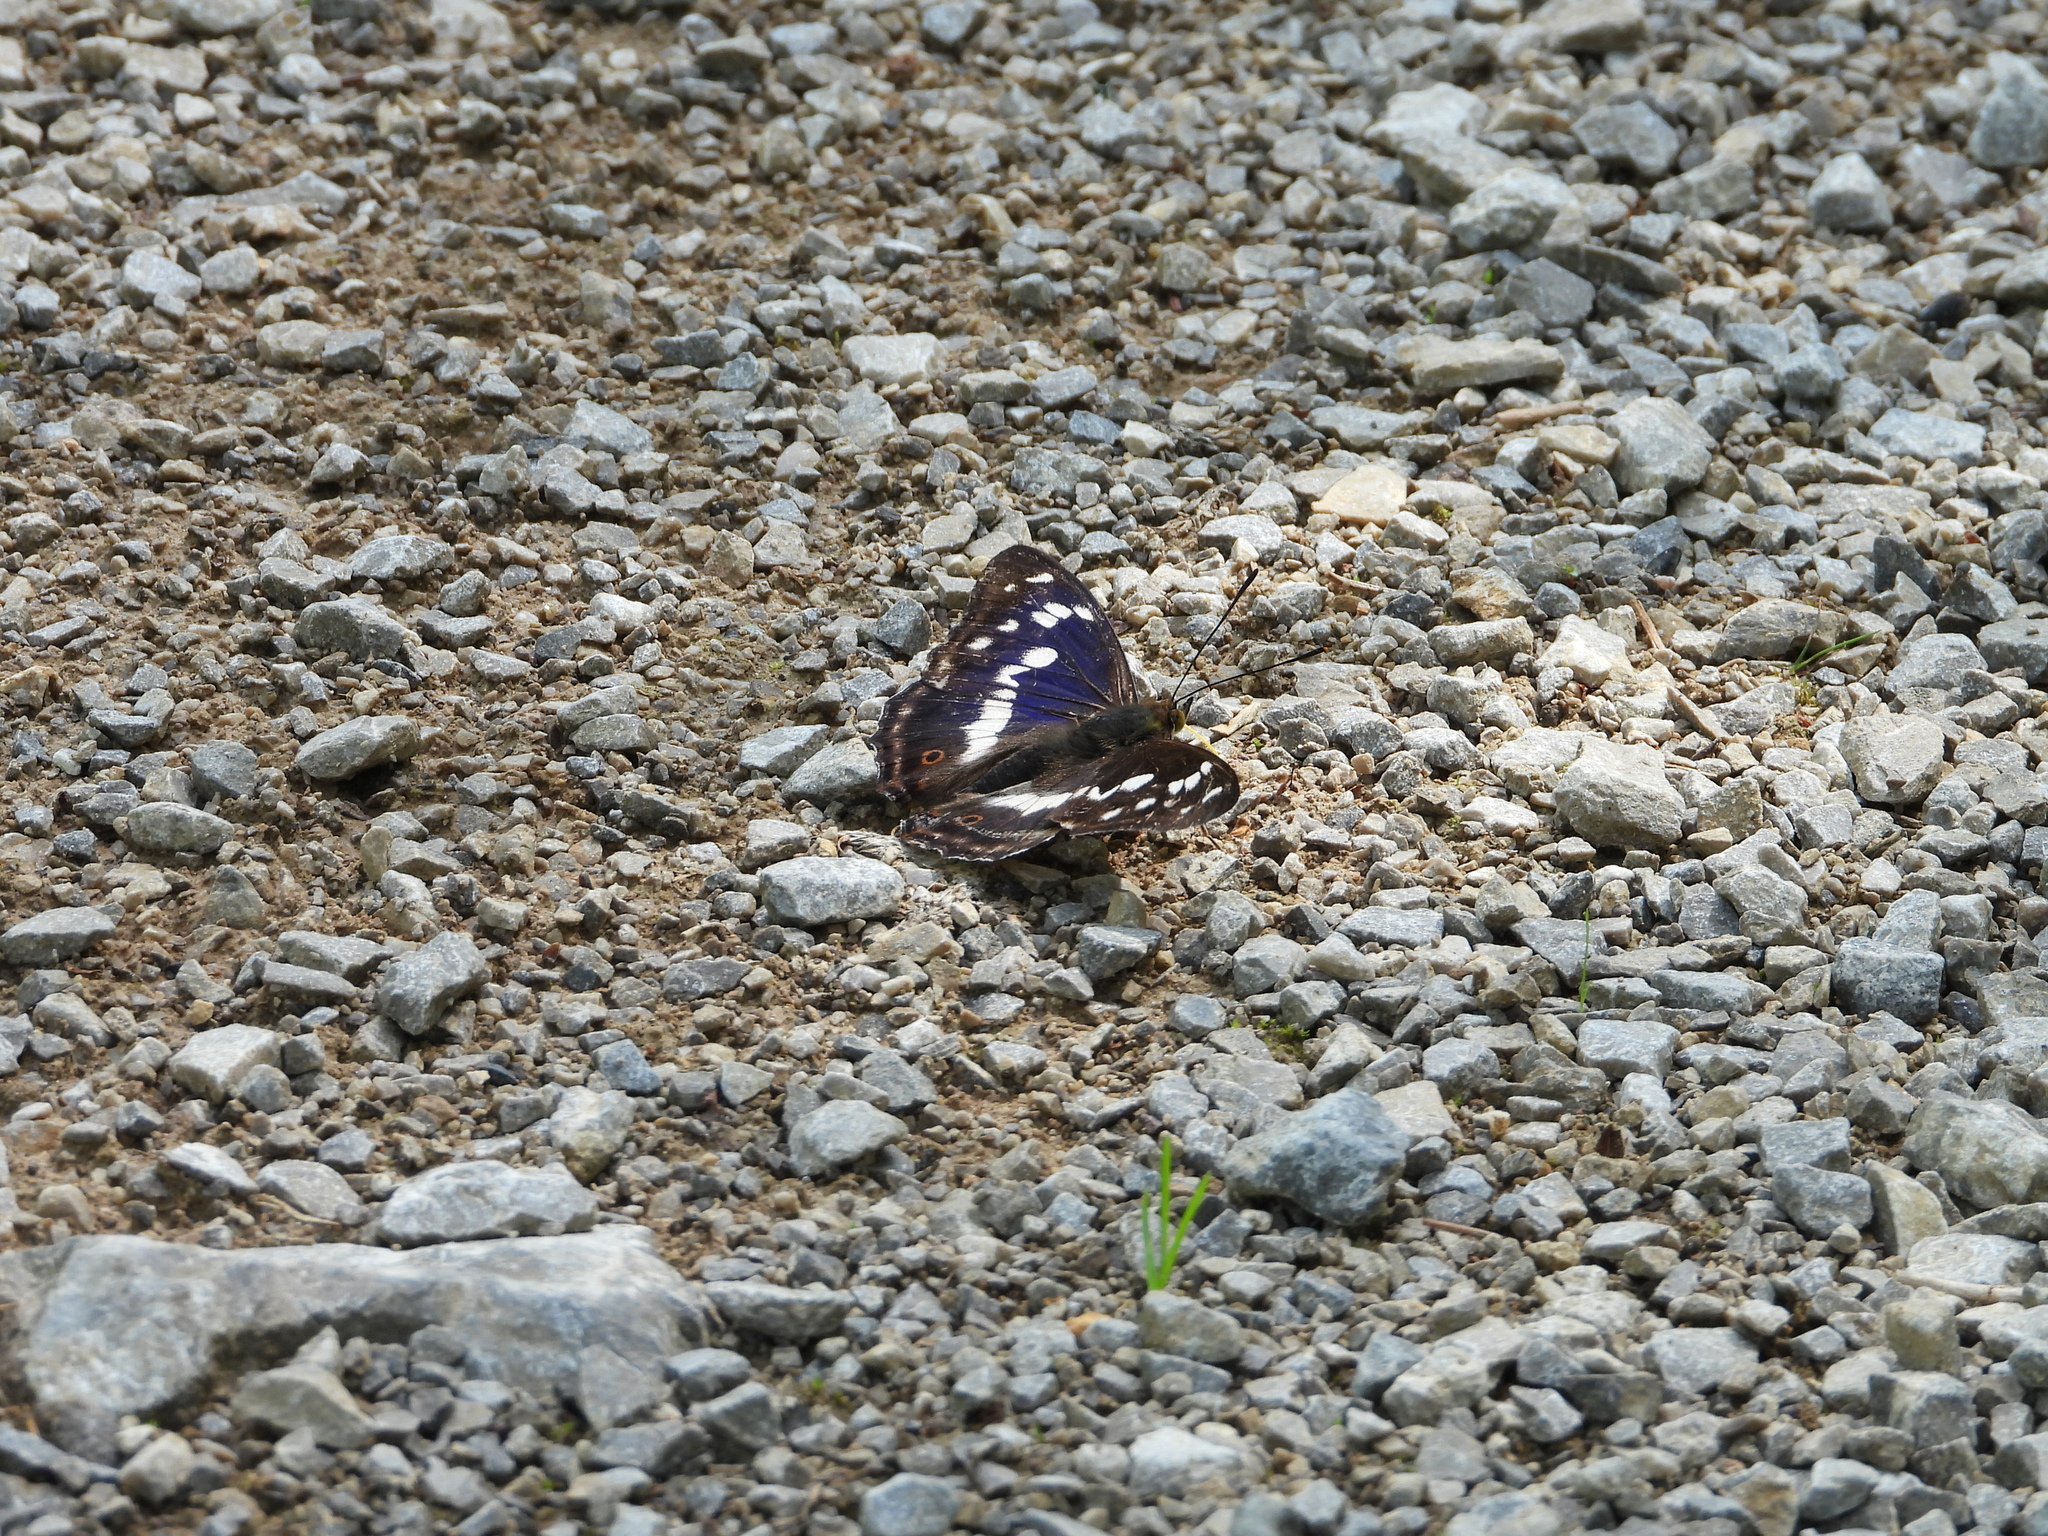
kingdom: Animalia
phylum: Arthropoda
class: Insecta
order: Lepidoptera
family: Nymphalidae
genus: Apatura
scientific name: Apatura iris
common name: Purple emperor
